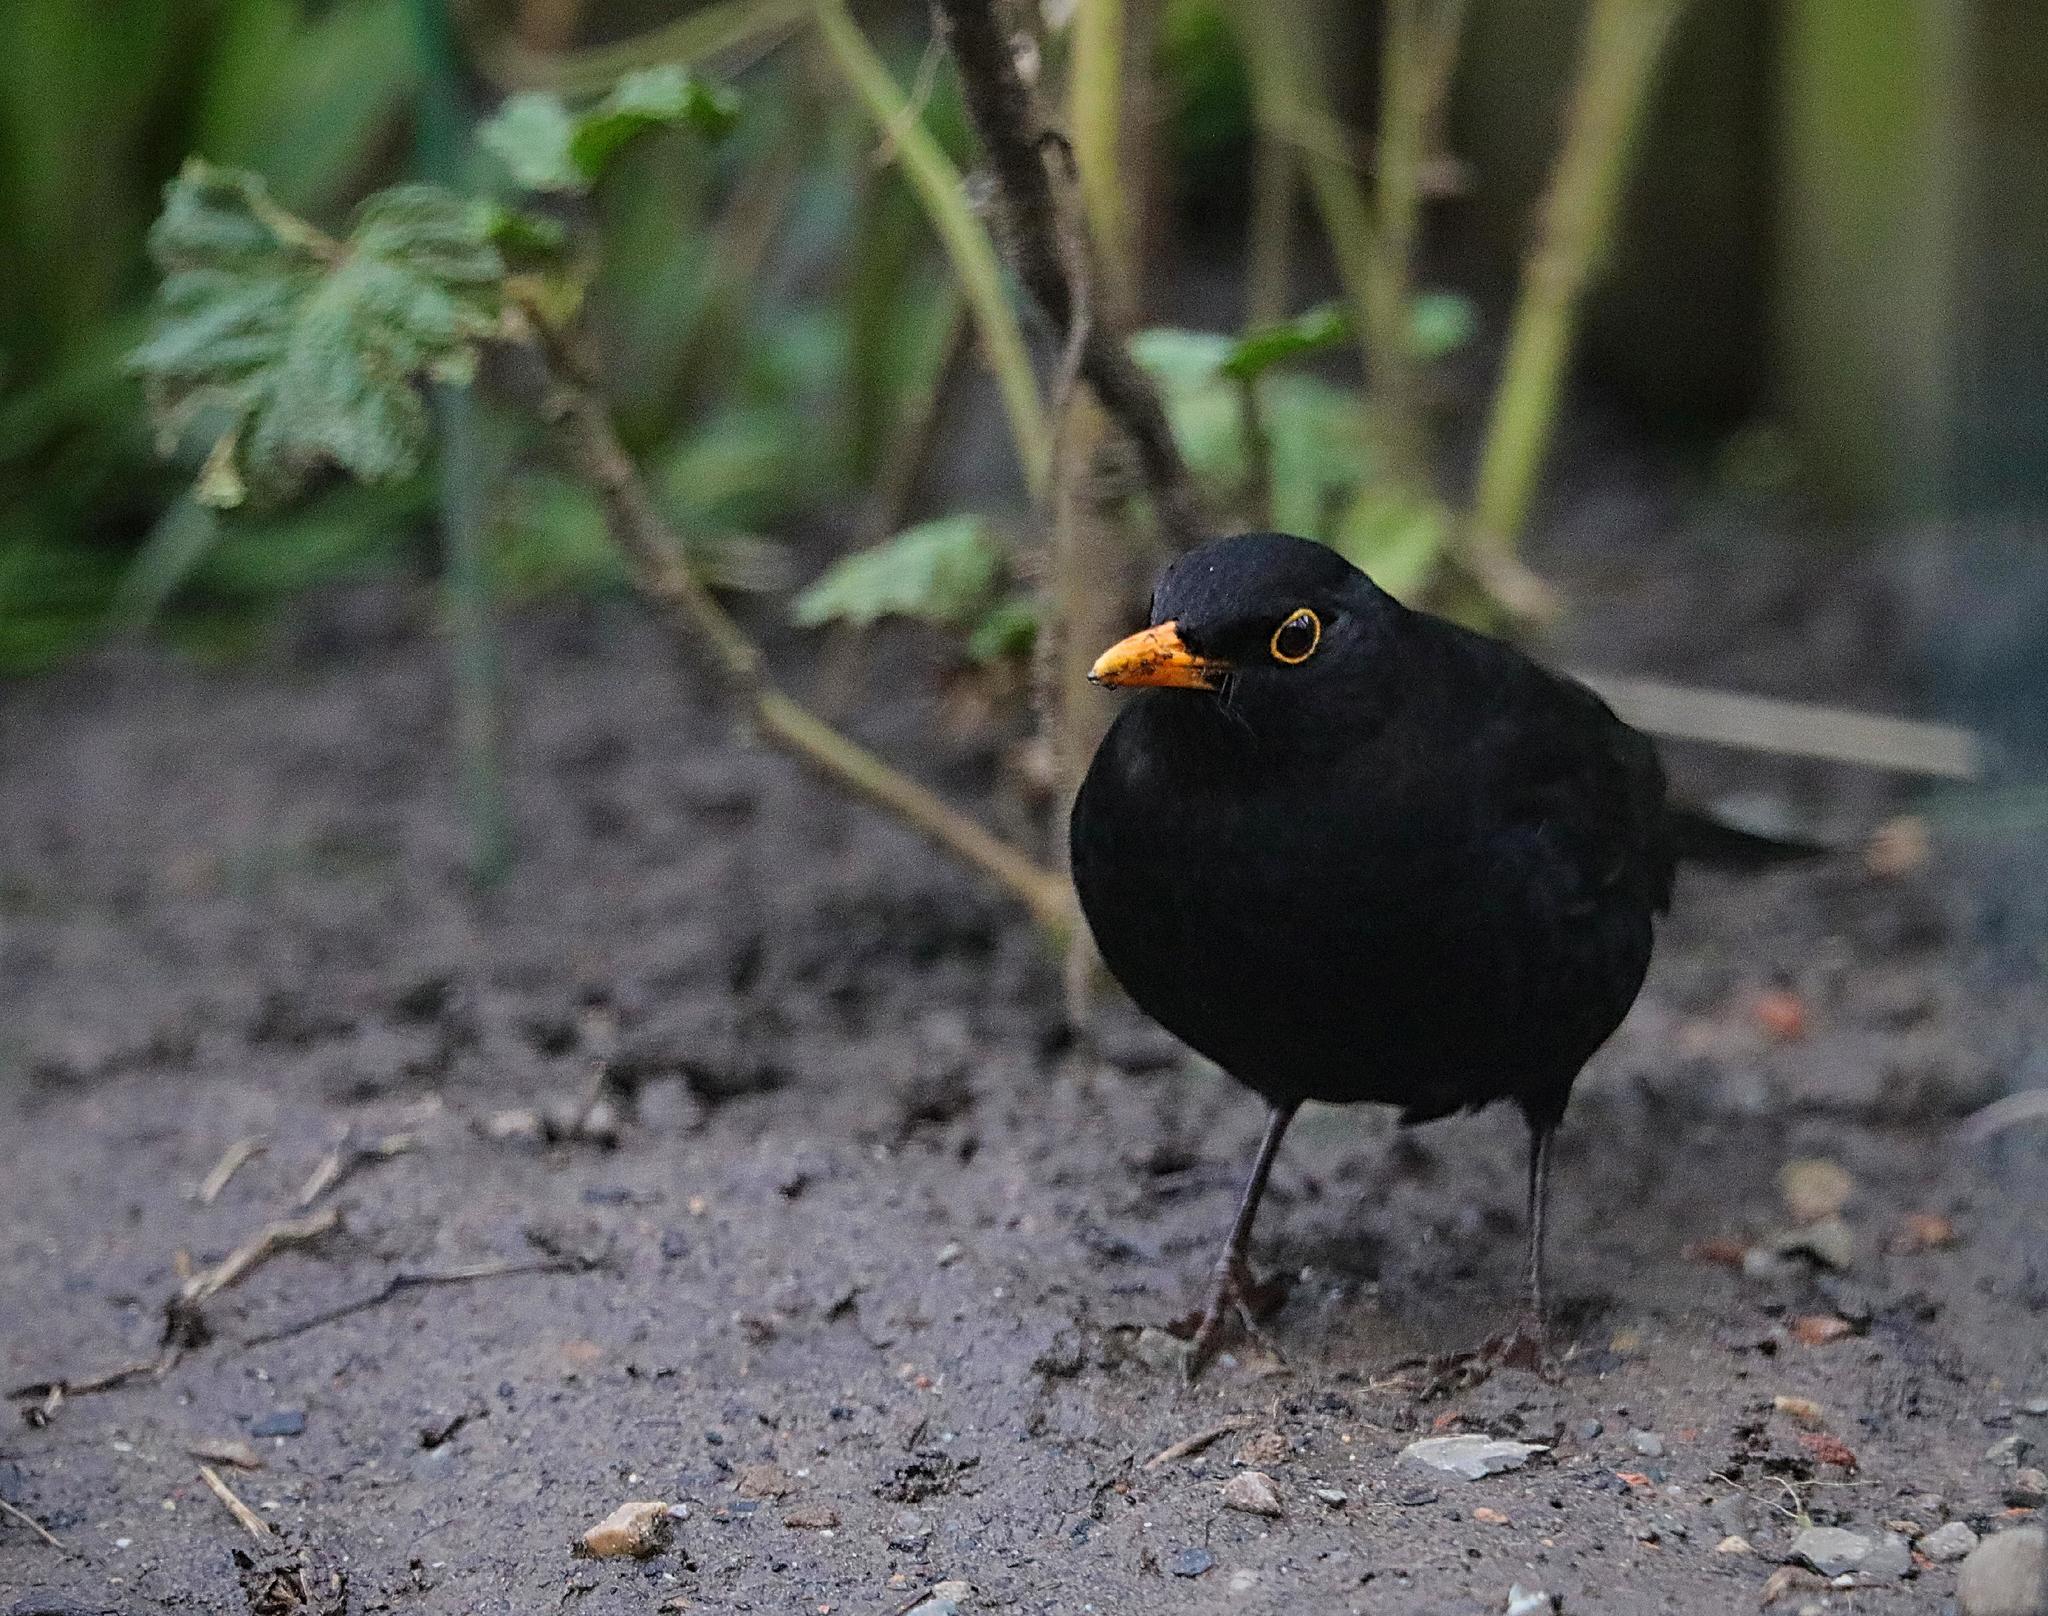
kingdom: Animalia
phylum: Chordata
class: Aves
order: Passeriformes
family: Turdidae
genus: Turdus
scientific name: Turdus merula
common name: Common blackbird
